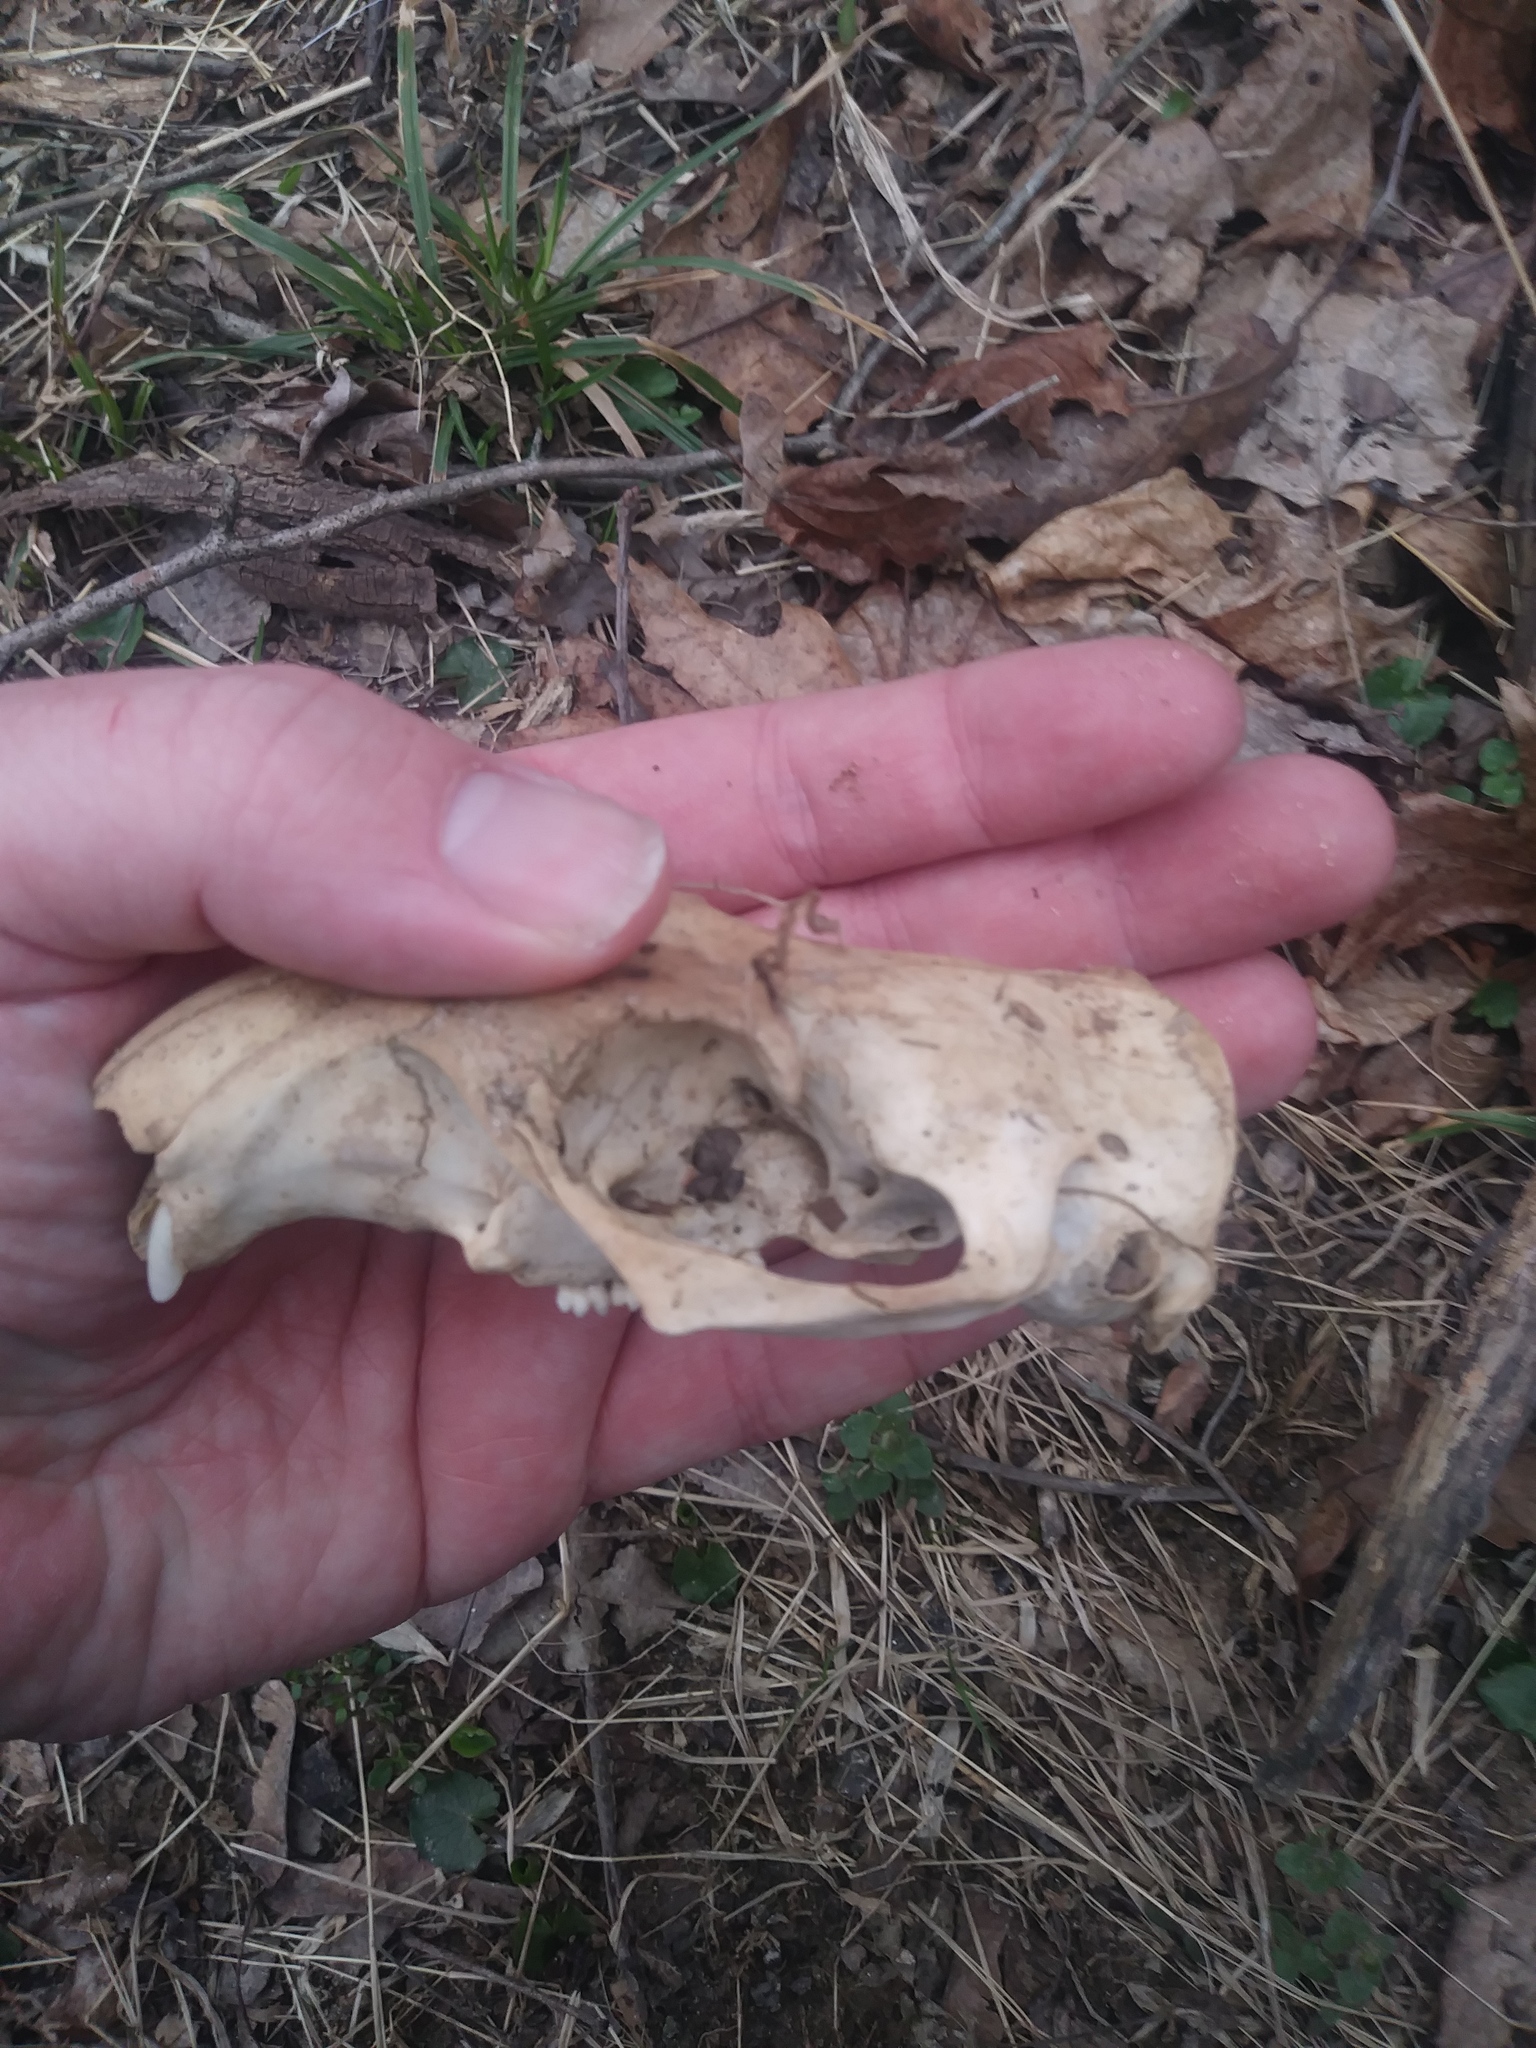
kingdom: Animalia
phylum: Chordata
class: Mammalia
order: Rodentia
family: Sciuridae
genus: Marmota
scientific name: Marmota monax
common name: Groundhog
